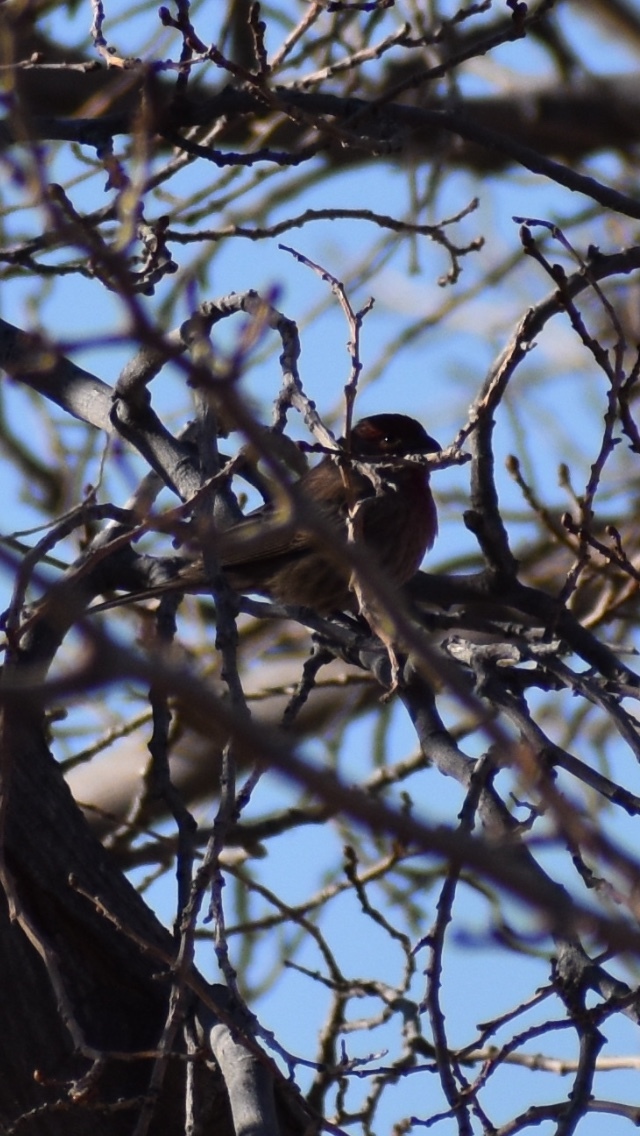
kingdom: Animalia
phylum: Chordata
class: Aves
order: Passeriformes
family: Fringillidae
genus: Haemorhous
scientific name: Haemorhous mexicanus
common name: House finch
